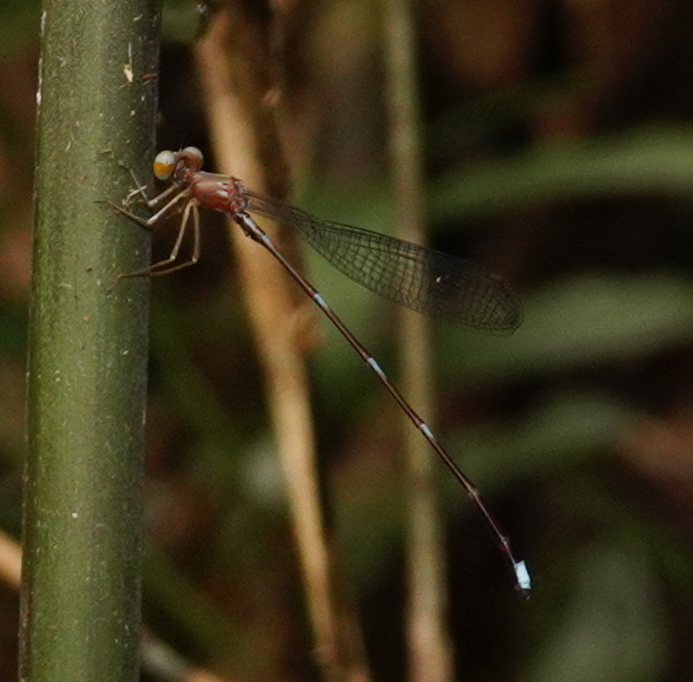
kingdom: Animalia
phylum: Arthropoda
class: Insecta
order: Odonata
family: Platystictidae
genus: Ceylonosticta
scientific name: Ceylonosticta bine
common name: Bine’s shadowdamsel
